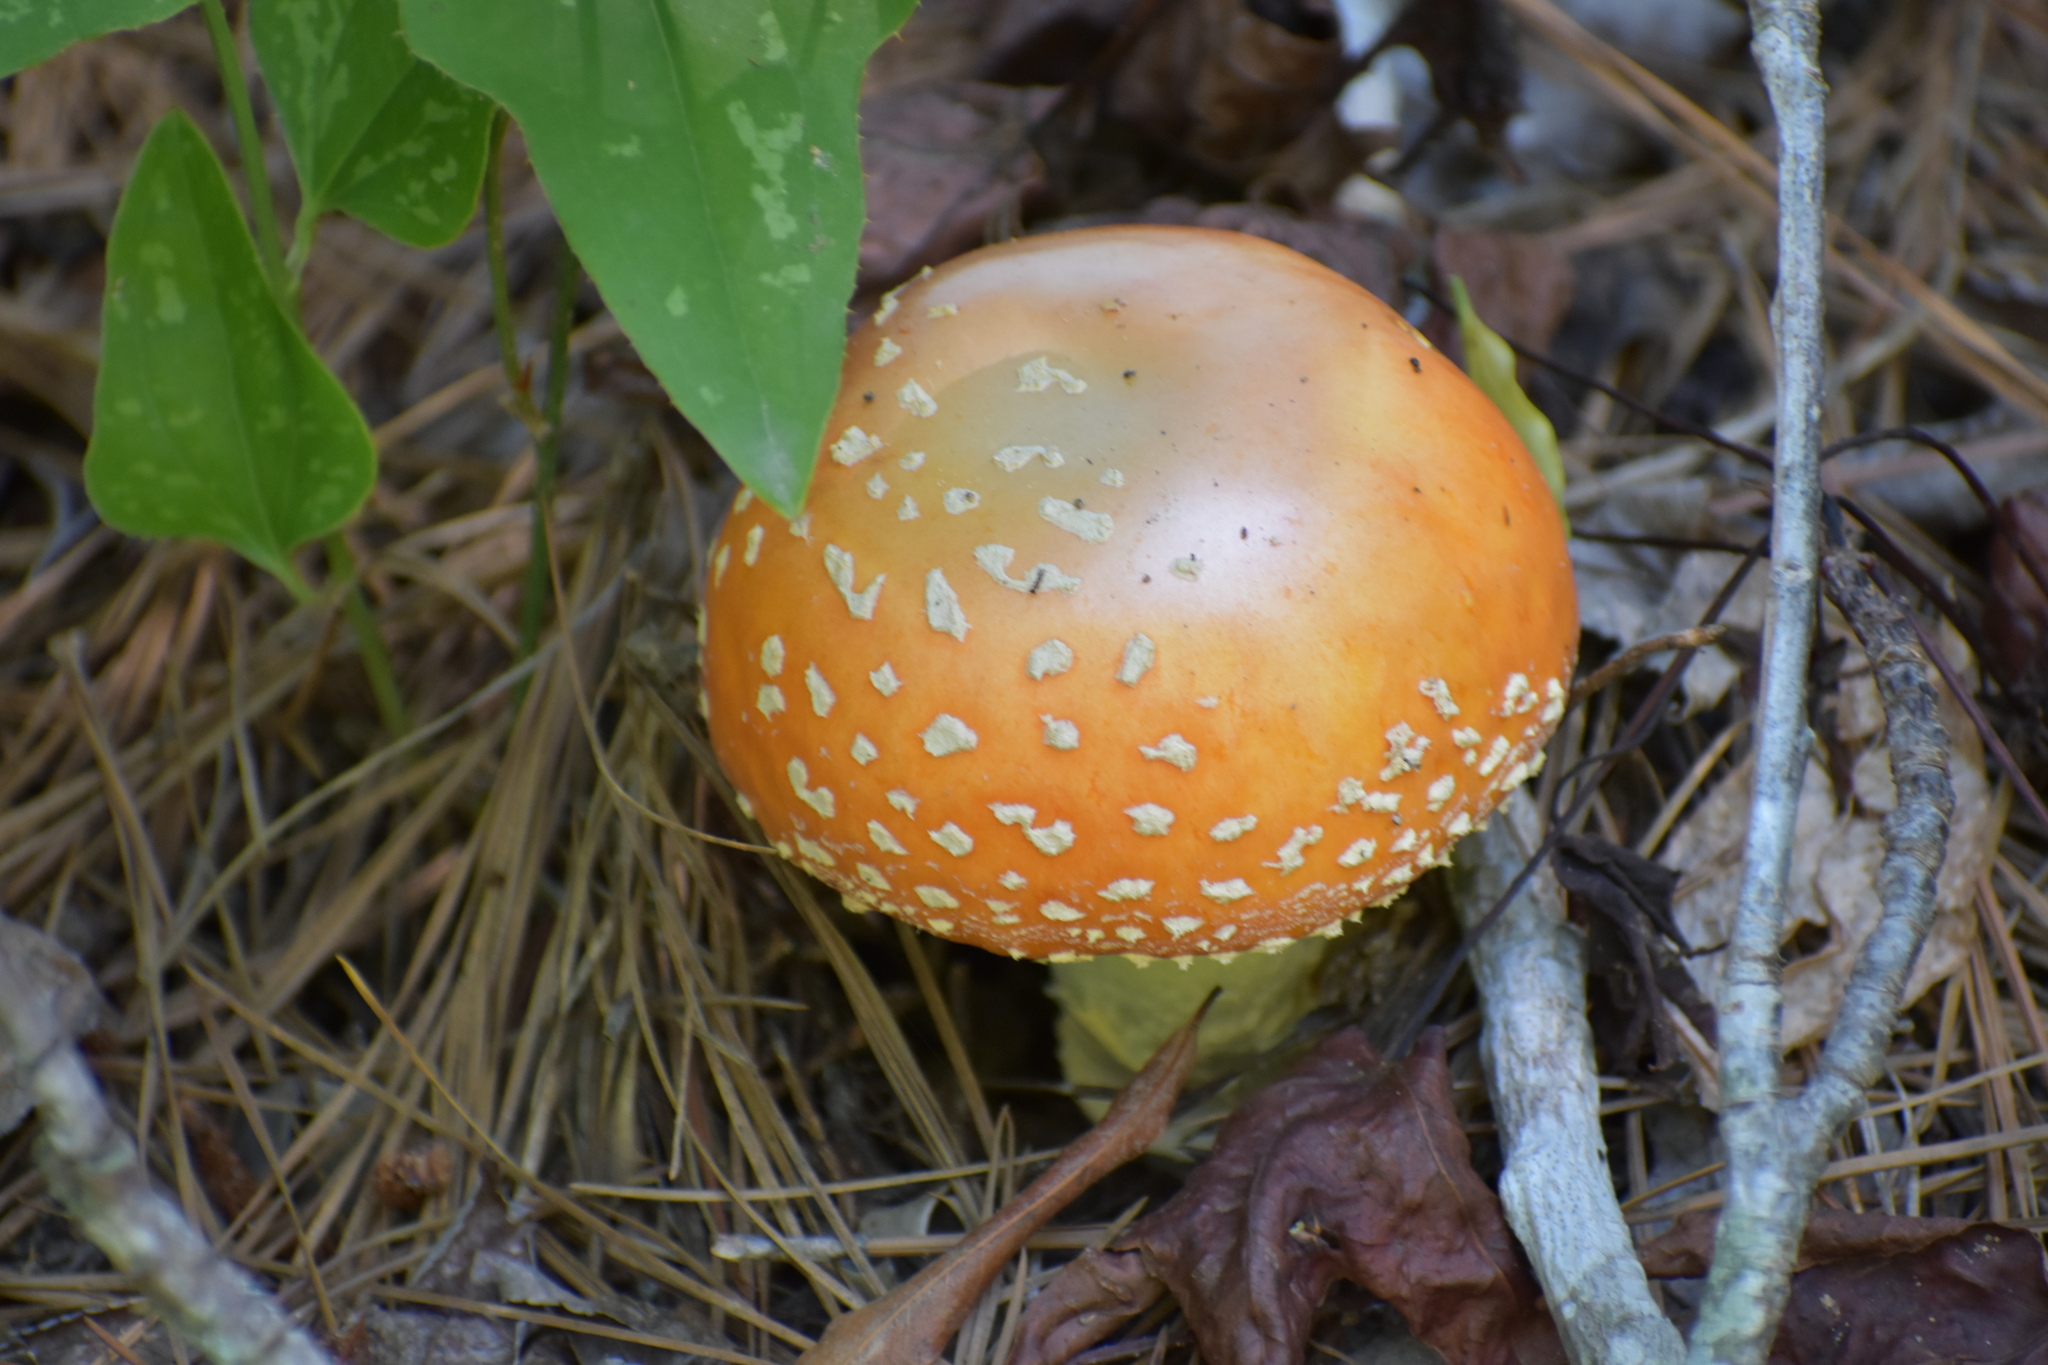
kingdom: Fungi
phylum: Basidiomycota
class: Agaricomycetes
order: Agaricales
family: Amanitaceae
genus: Amanita
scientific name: Amanita persicina
